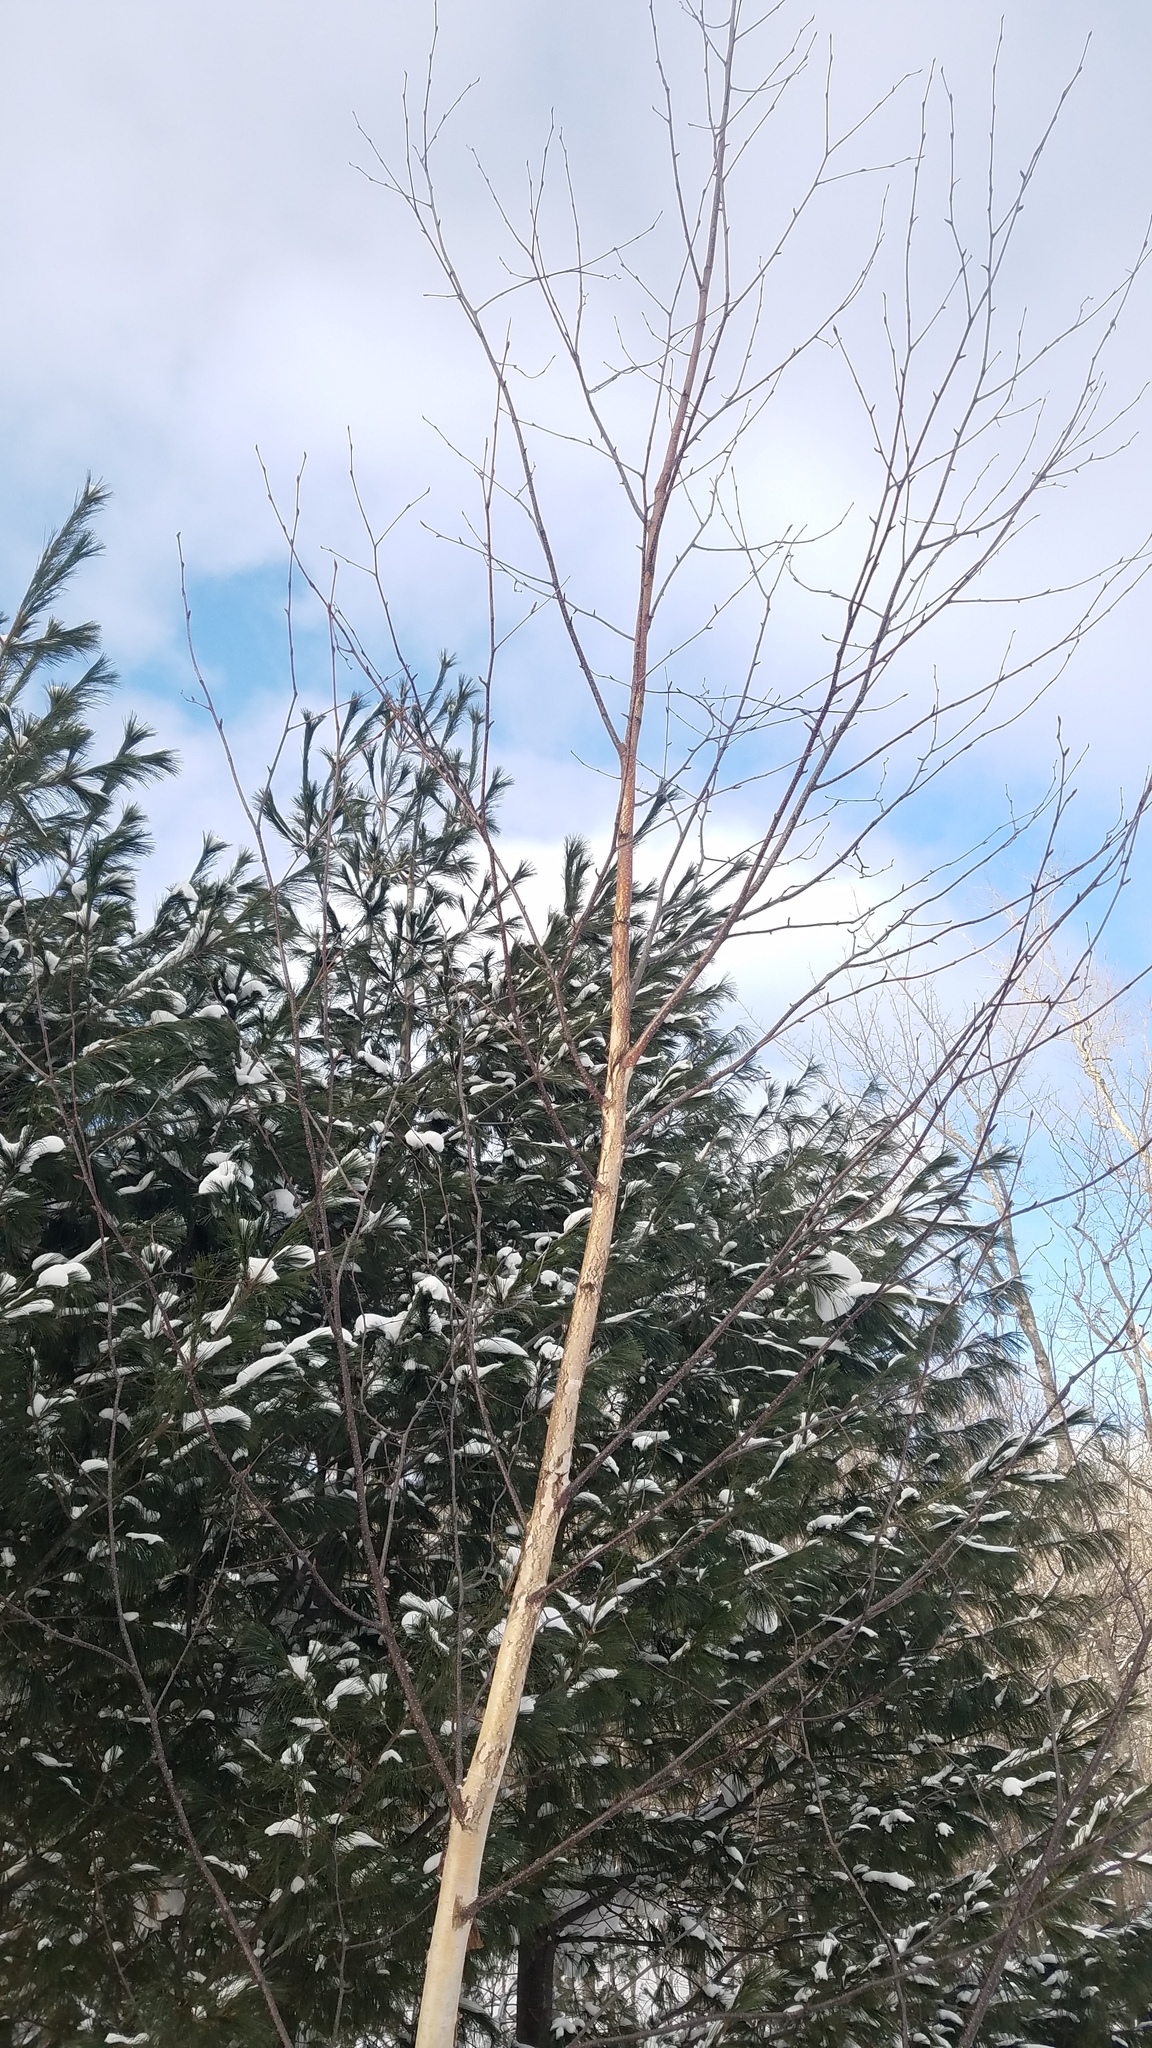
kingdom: Plantae
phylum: Tracheophyta
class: Magnoliopsida
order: Fagales
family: Betulaceae
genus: Betula
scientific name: Betula papyrifera
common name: Paper birch
